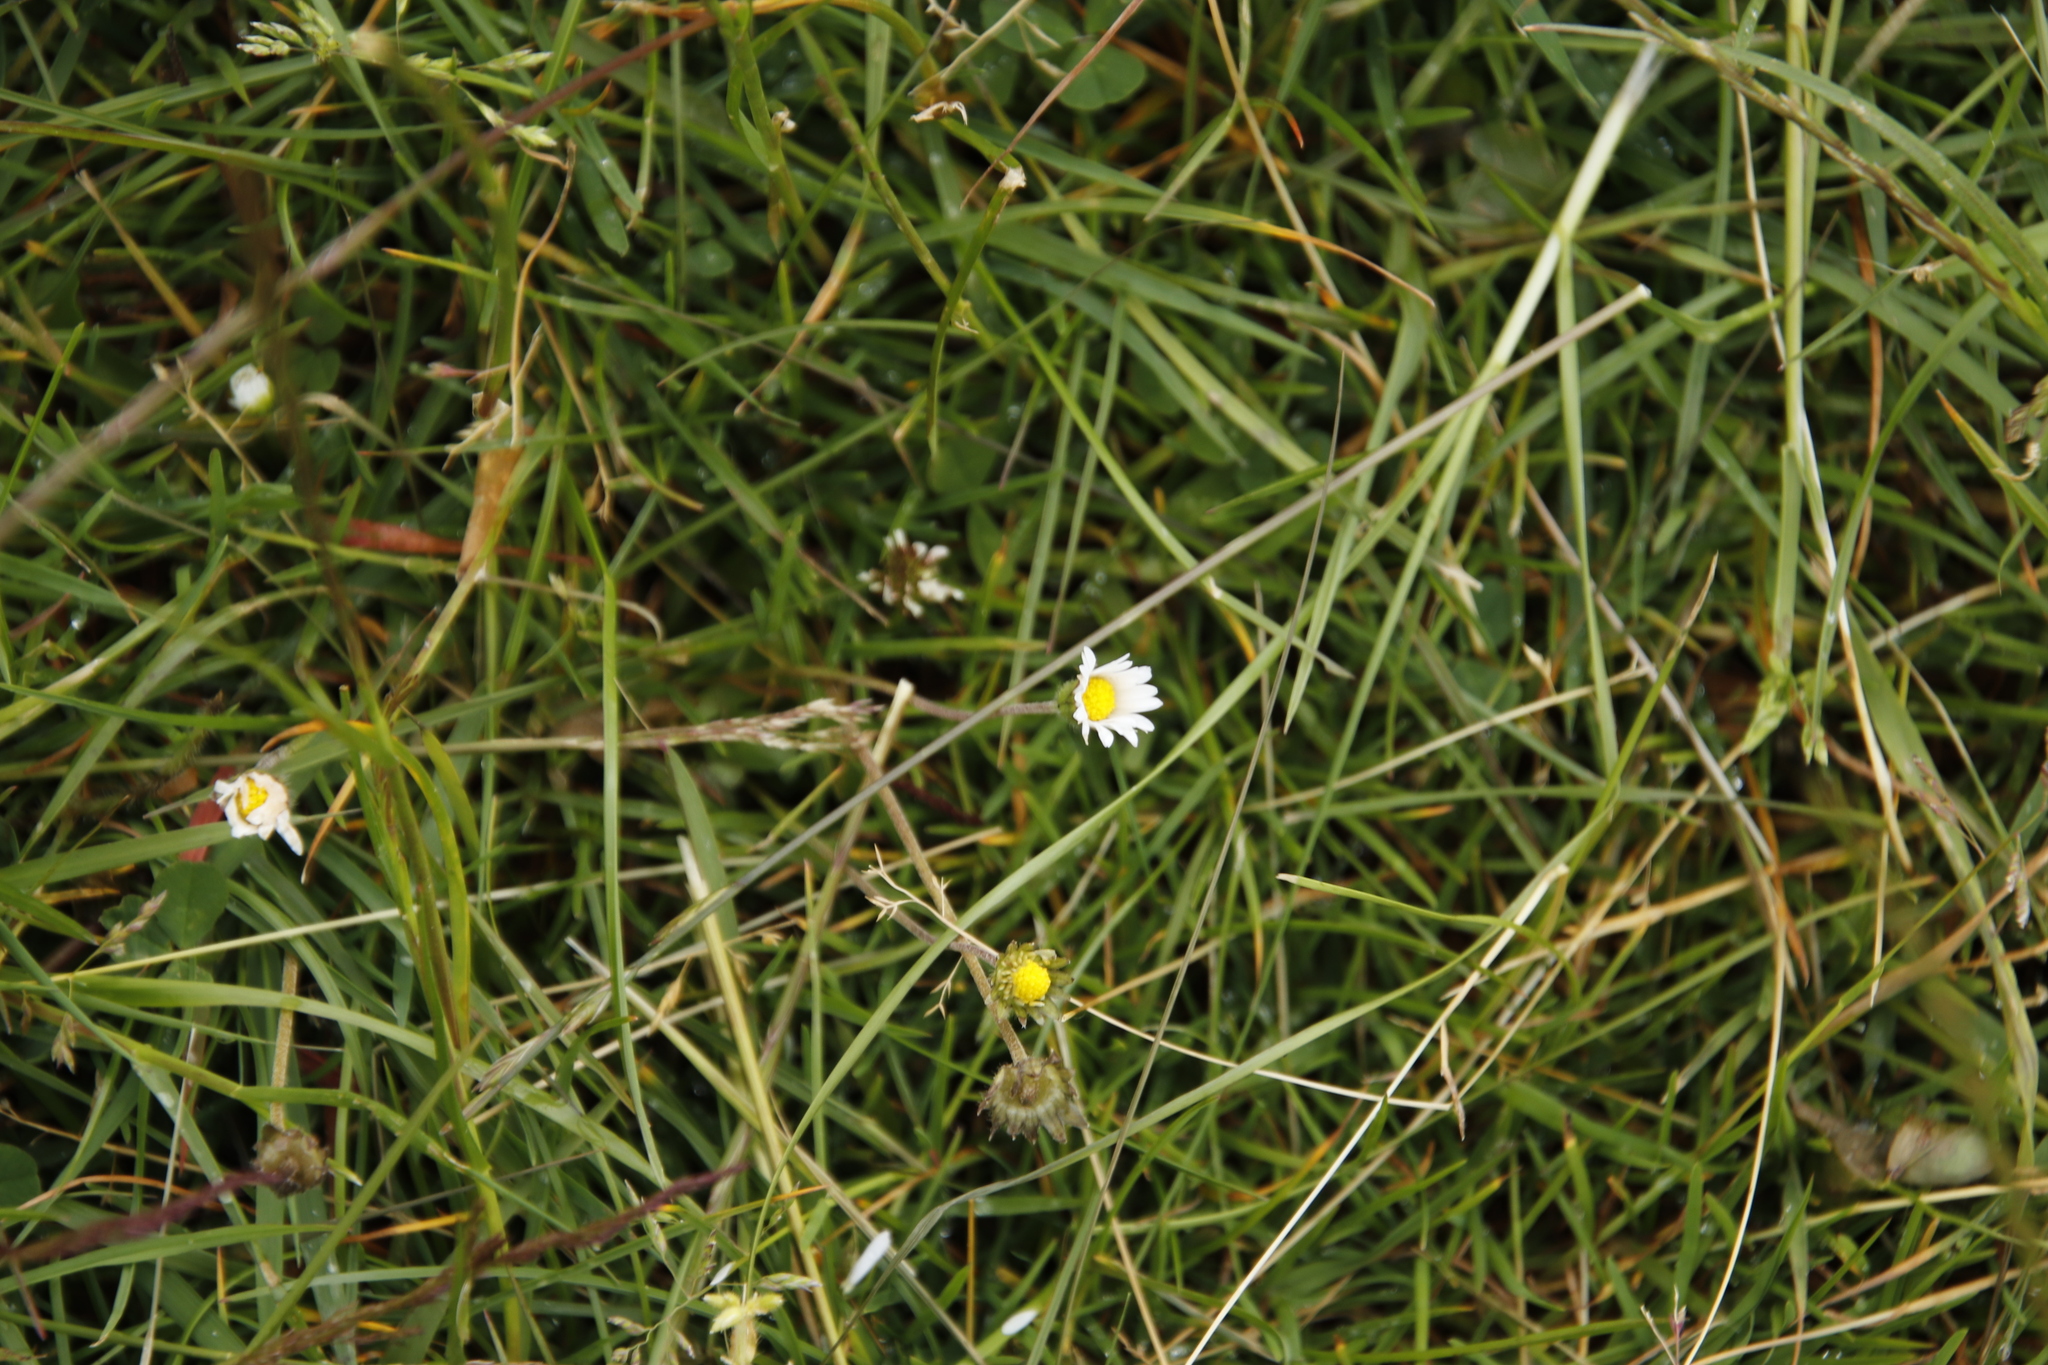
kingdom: Plantae
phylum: Tracheophyta
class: Magnoliopsida
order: Asterales
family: Asteraceae
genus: Bellis
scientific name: Bellis perennis
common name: Lawndaisy
